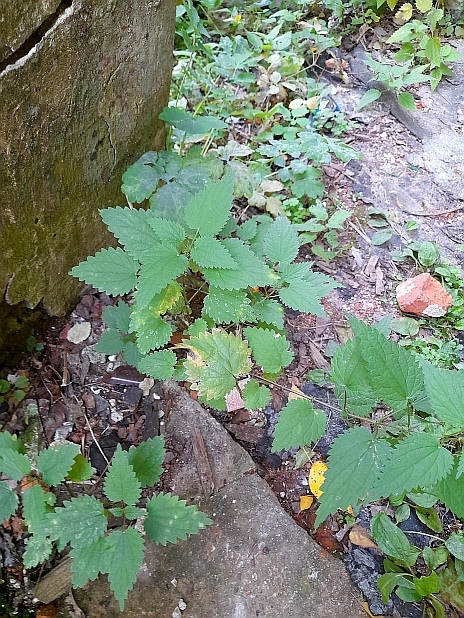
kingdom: Plantae
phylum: Tracheophyta
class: Magnoliopsida
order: Rosales
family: Urticaceae
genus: Urtica
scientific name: Urtica dioica
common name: Common nettle
